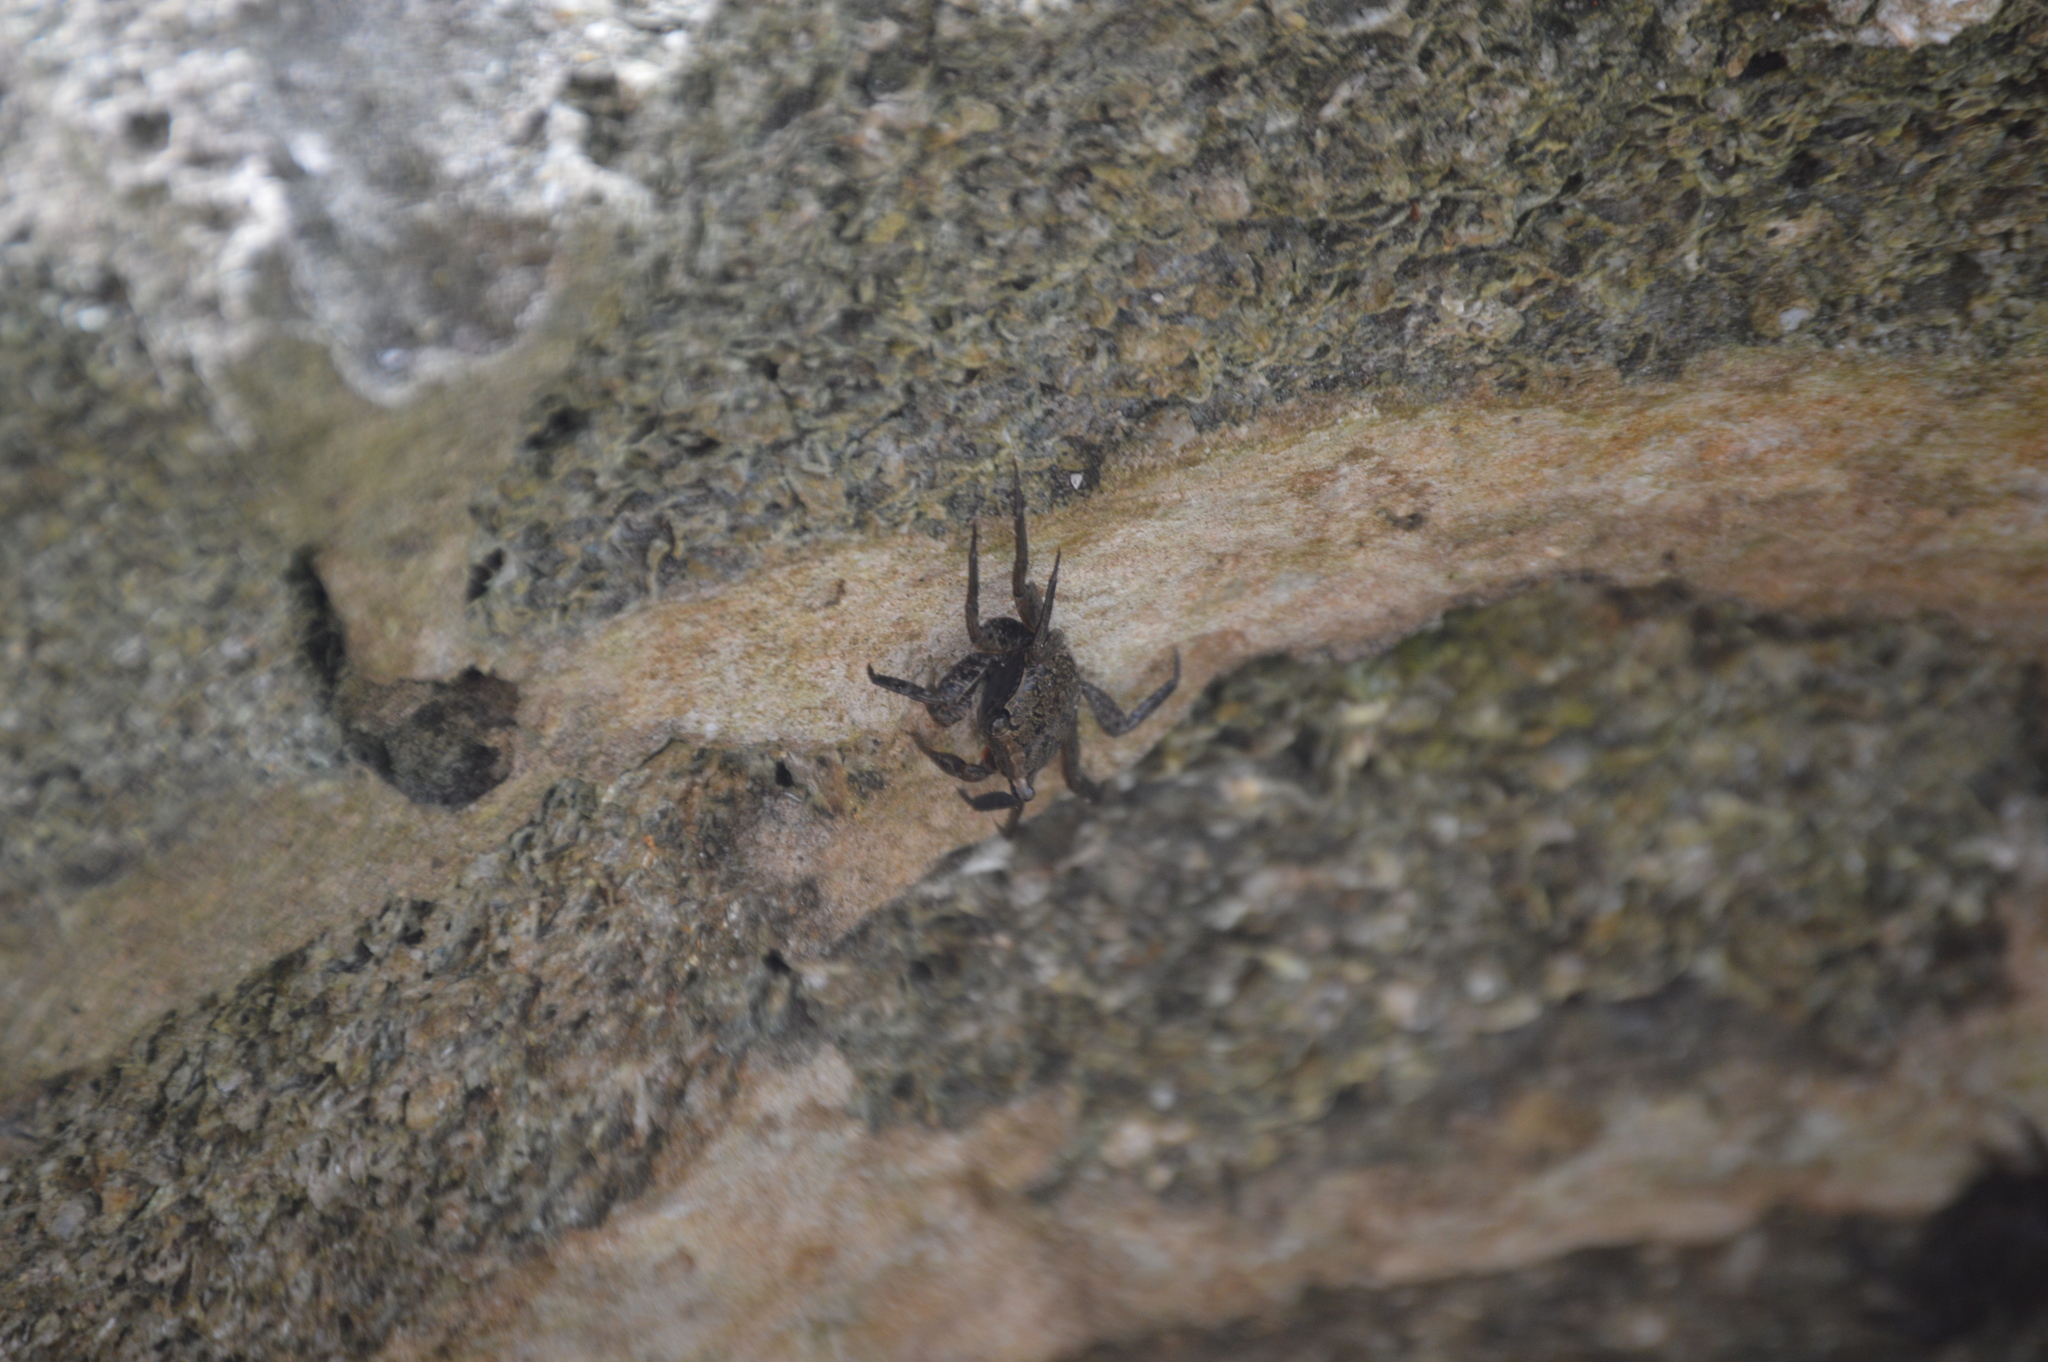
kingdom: Animalia
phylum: Arthropoda
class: Malacostraca
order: Decapoda
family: Sesarmidae
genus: Aratus
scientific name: Aratus pisonii
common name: Mangrove crab
